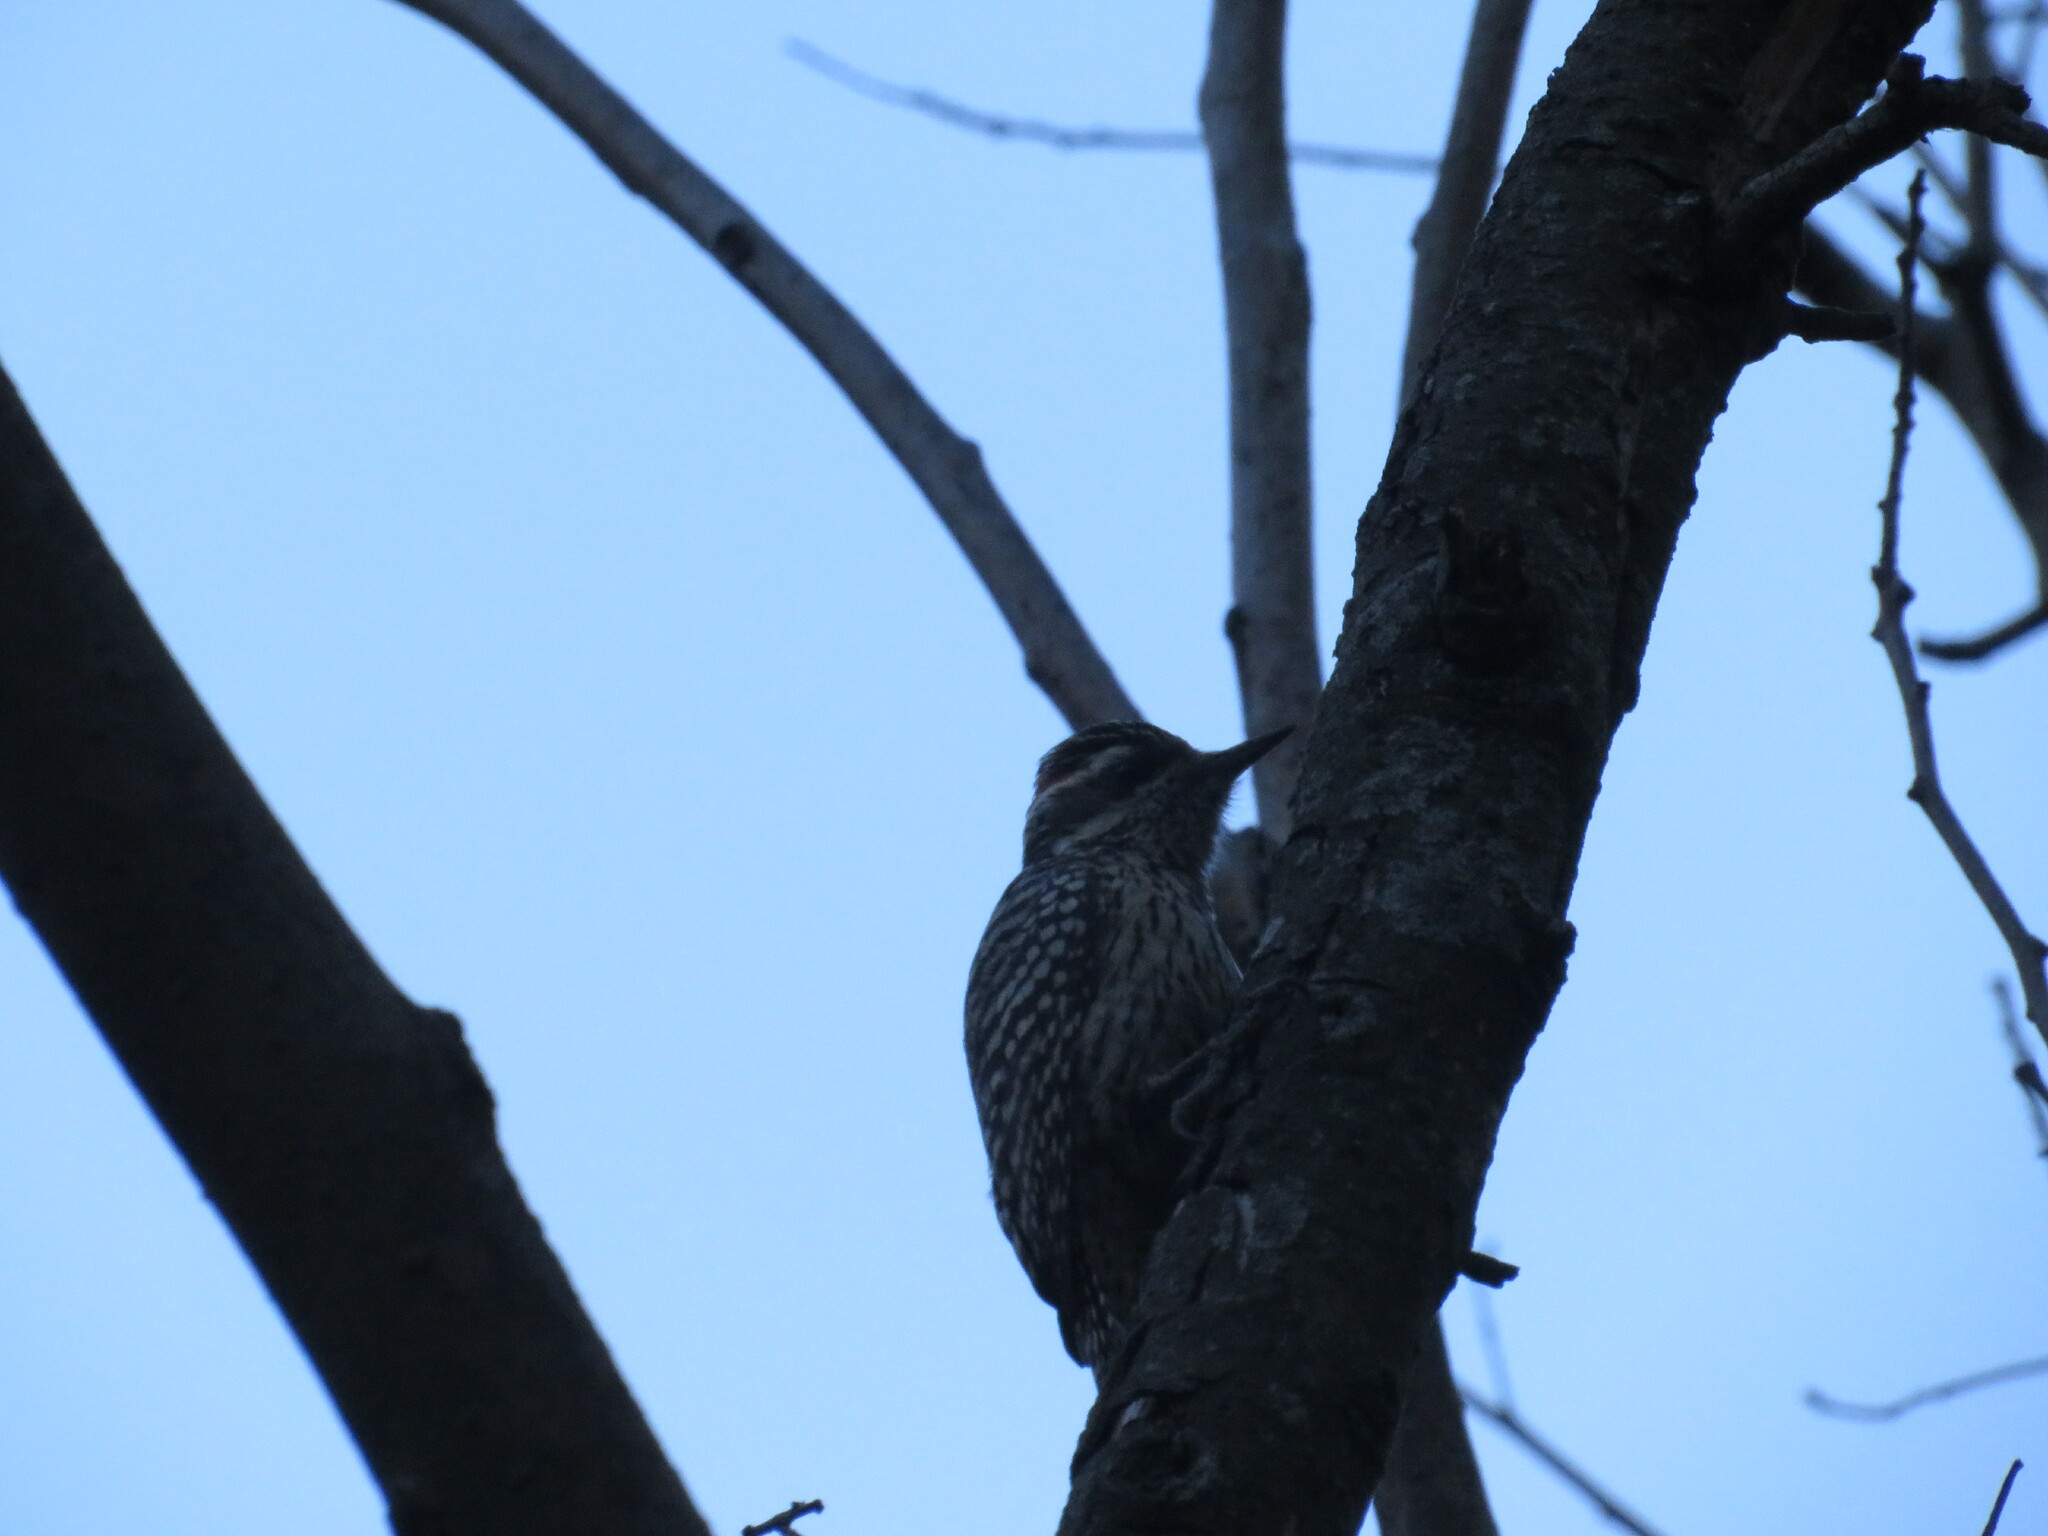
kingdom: Animalia
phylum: Chordata
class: Aves
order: Piciformes
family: Picidae
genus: Veniliornis
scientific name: Veniliornis mixtus
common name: Checkered woodpecker
